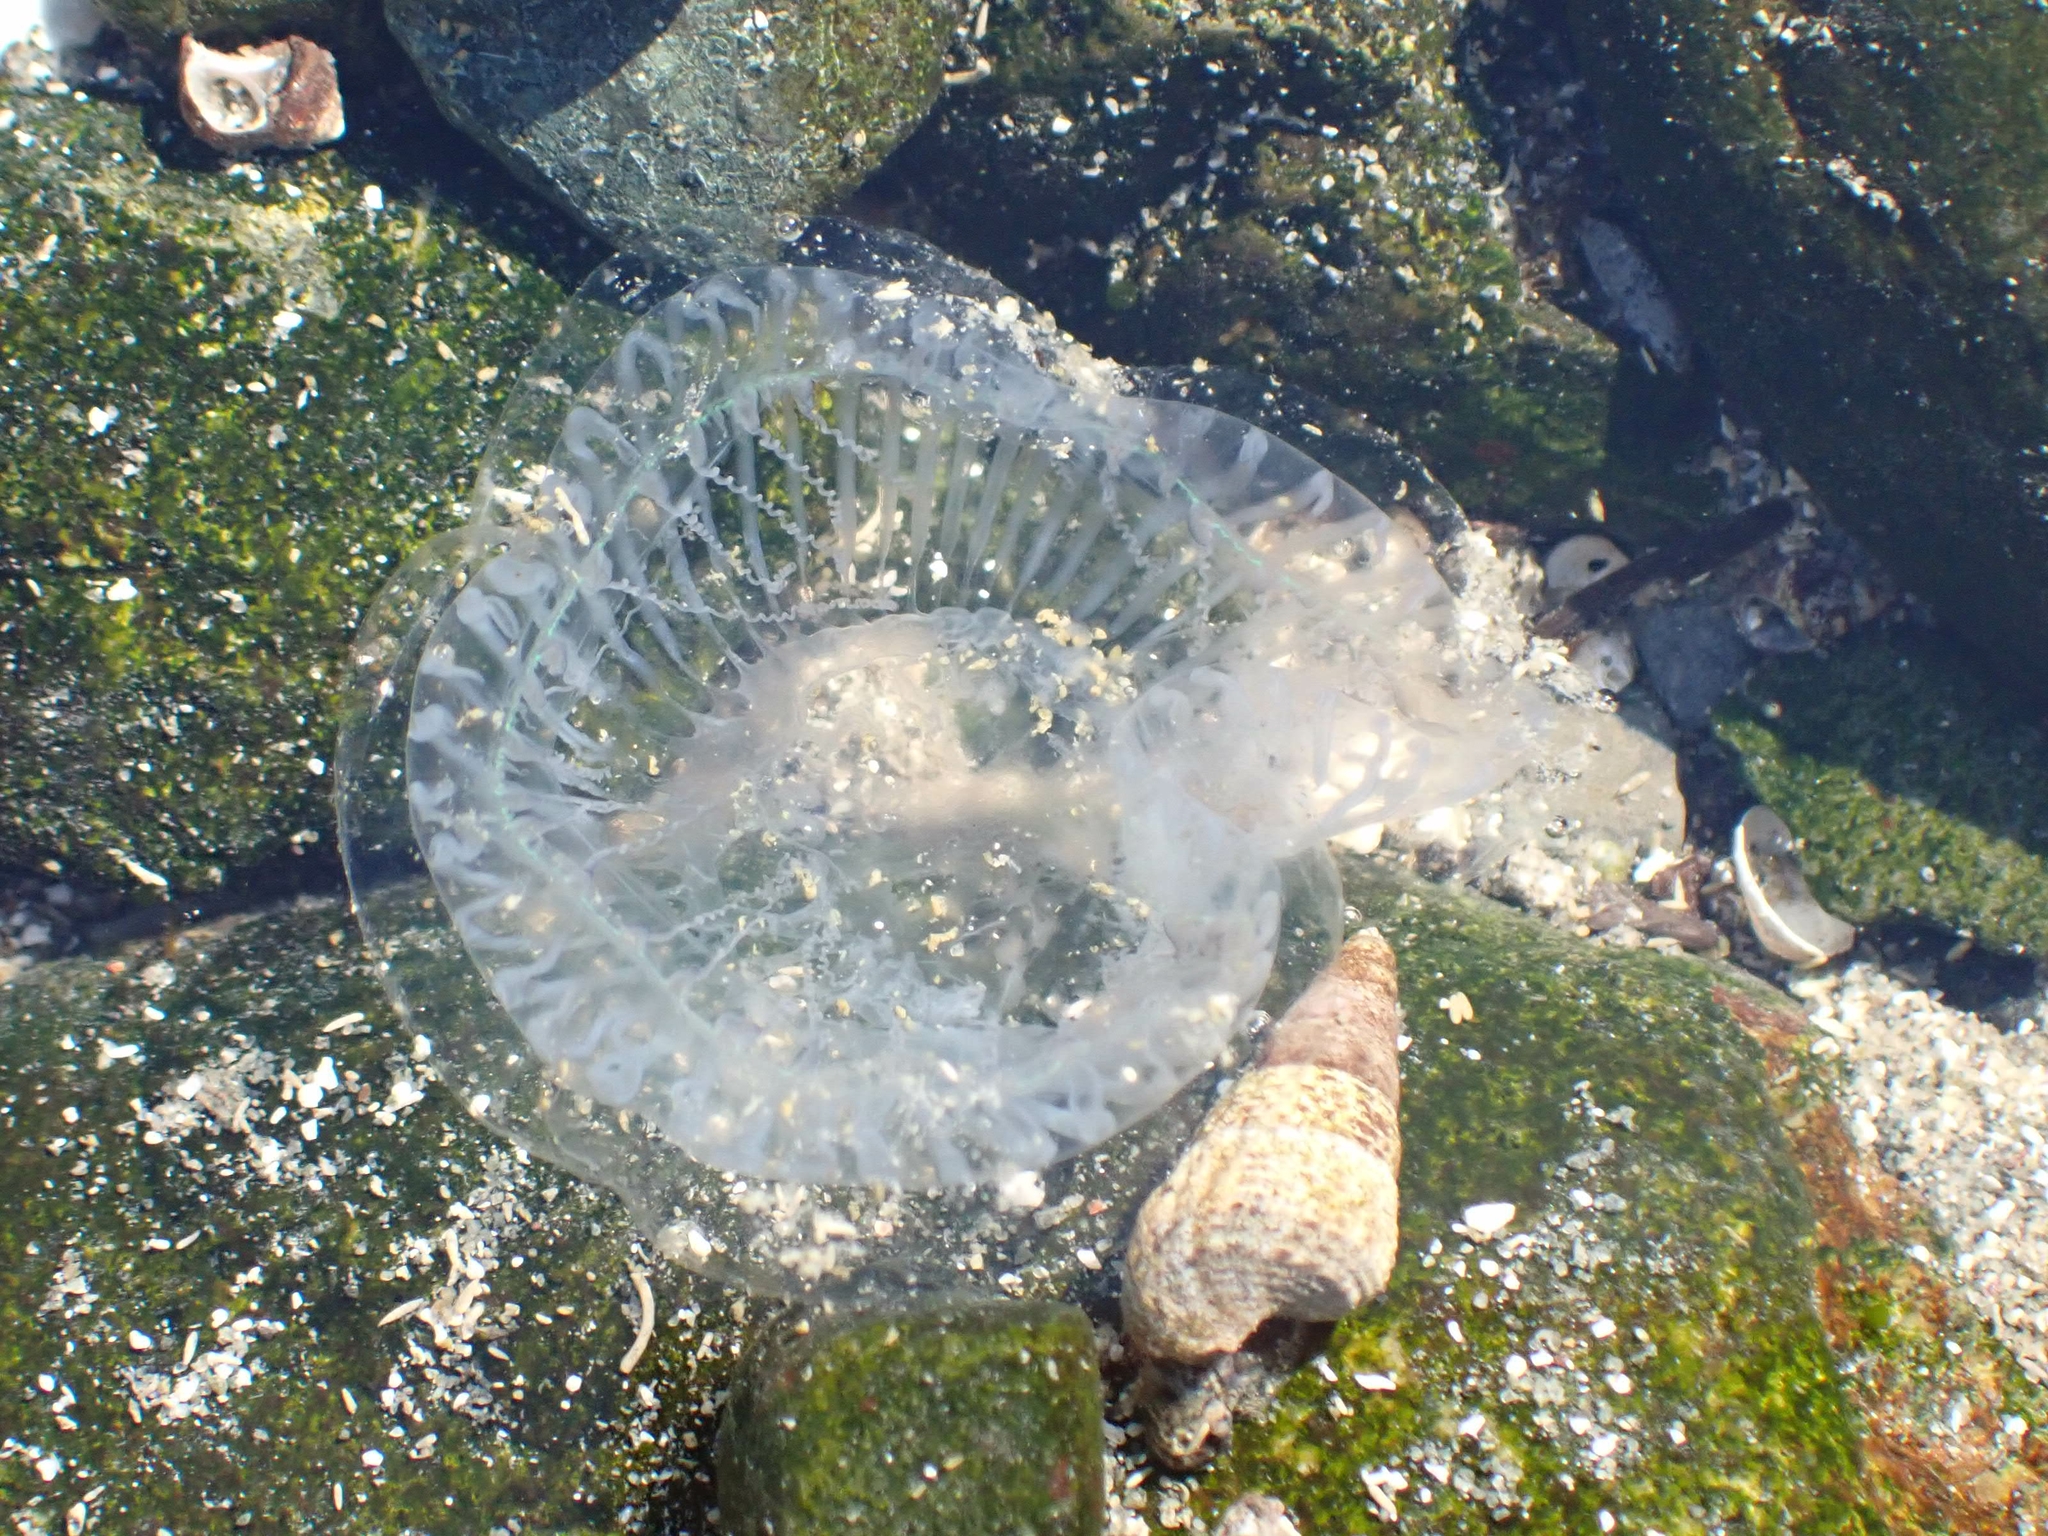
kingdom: Animalia
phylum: Cnidaria
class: Hydrozoa
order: Leptothecata
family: Aequoreidae
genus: Aequorea
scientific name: Aequorea victoria
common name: Water jellyfish
